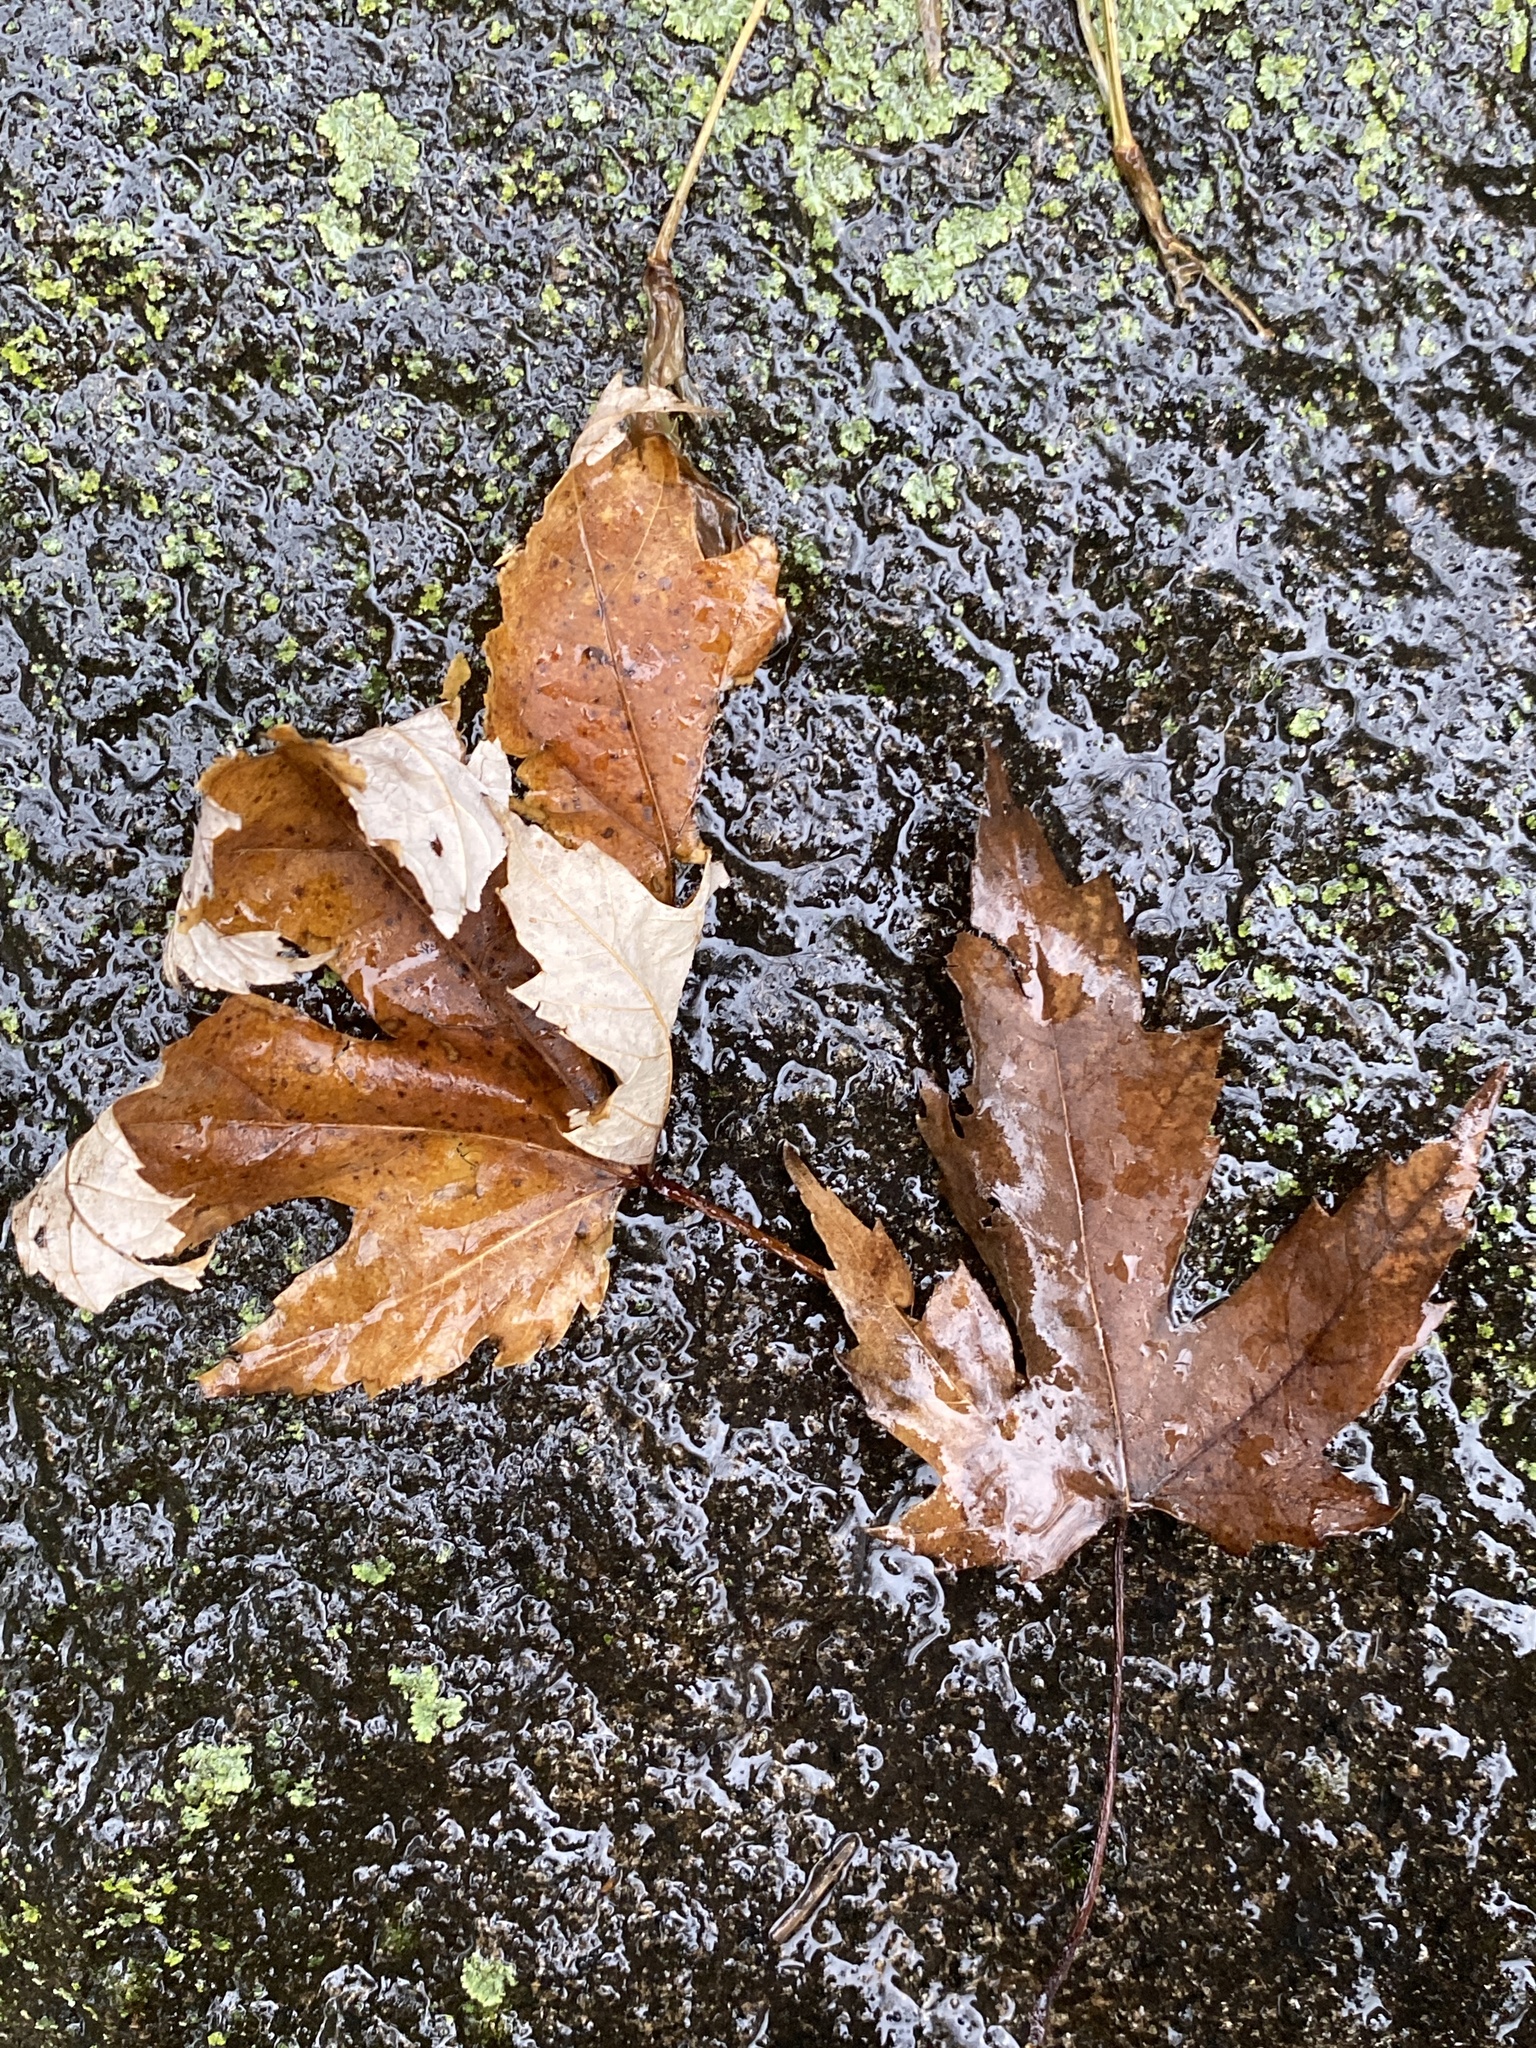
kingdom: Plantae
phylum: Tracheophyta
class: Magnoliopsida
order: Sapindales
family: Sapindaceae
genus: Acer
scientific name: Acer saccharinum
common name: Silver maple
